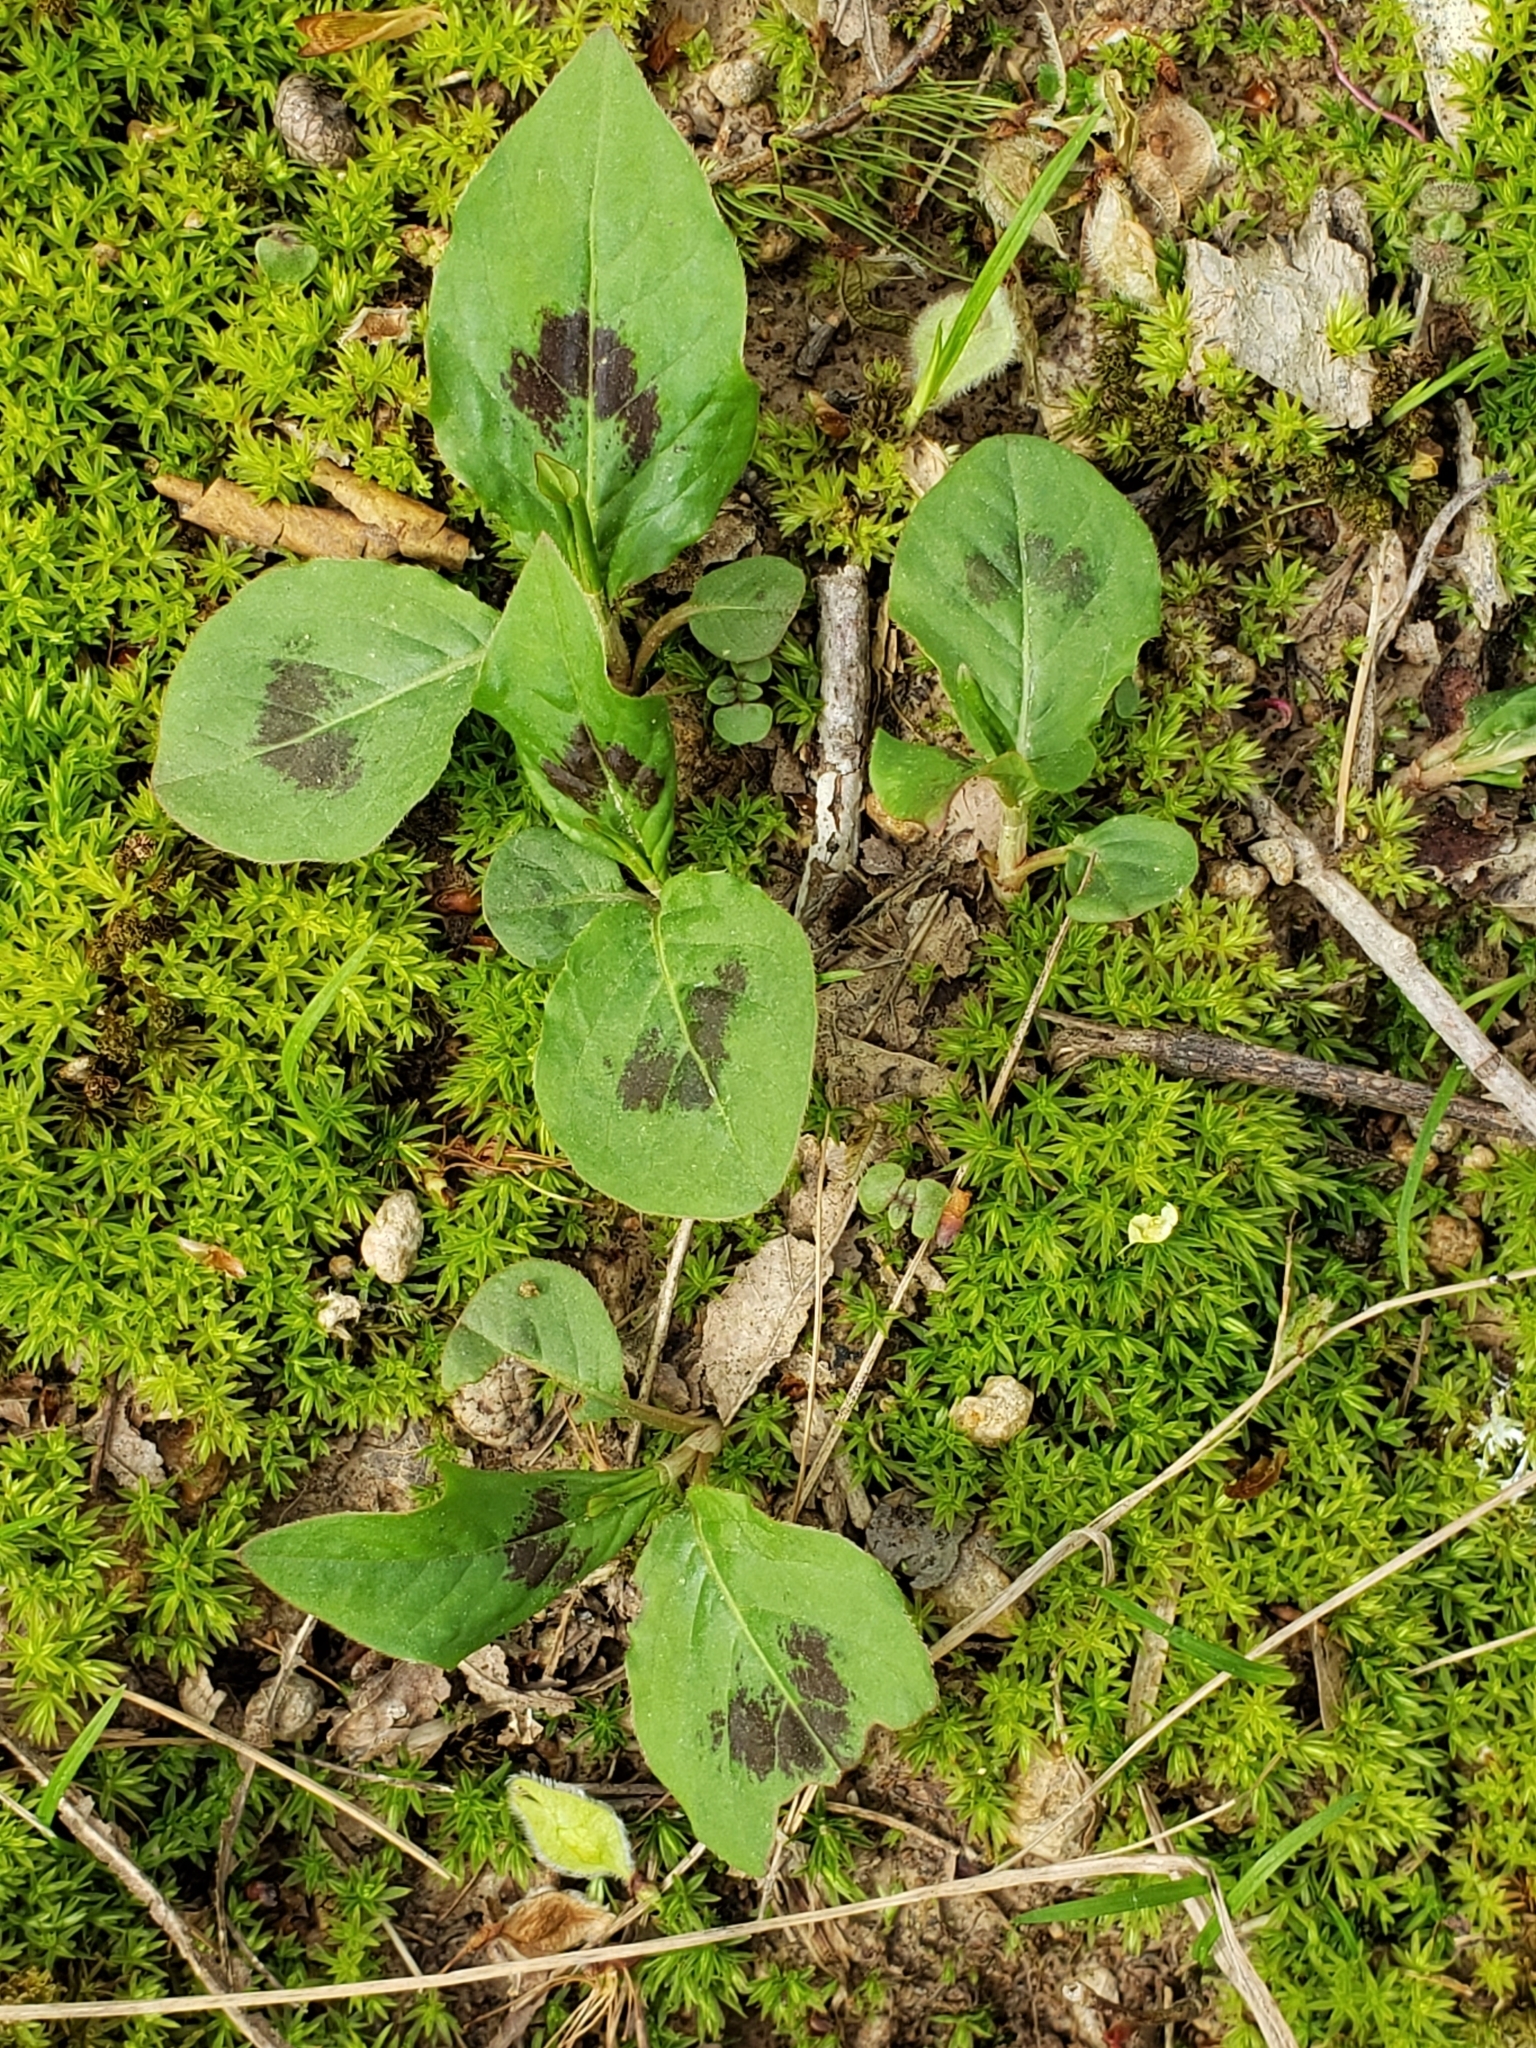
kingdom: Plantae
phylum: Tracheophyta
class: Magnoliopsida
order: Caryophyllales
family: Polygonaceae
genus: Persicaria
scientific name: Persicaria virginiana
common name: Jumpseed
